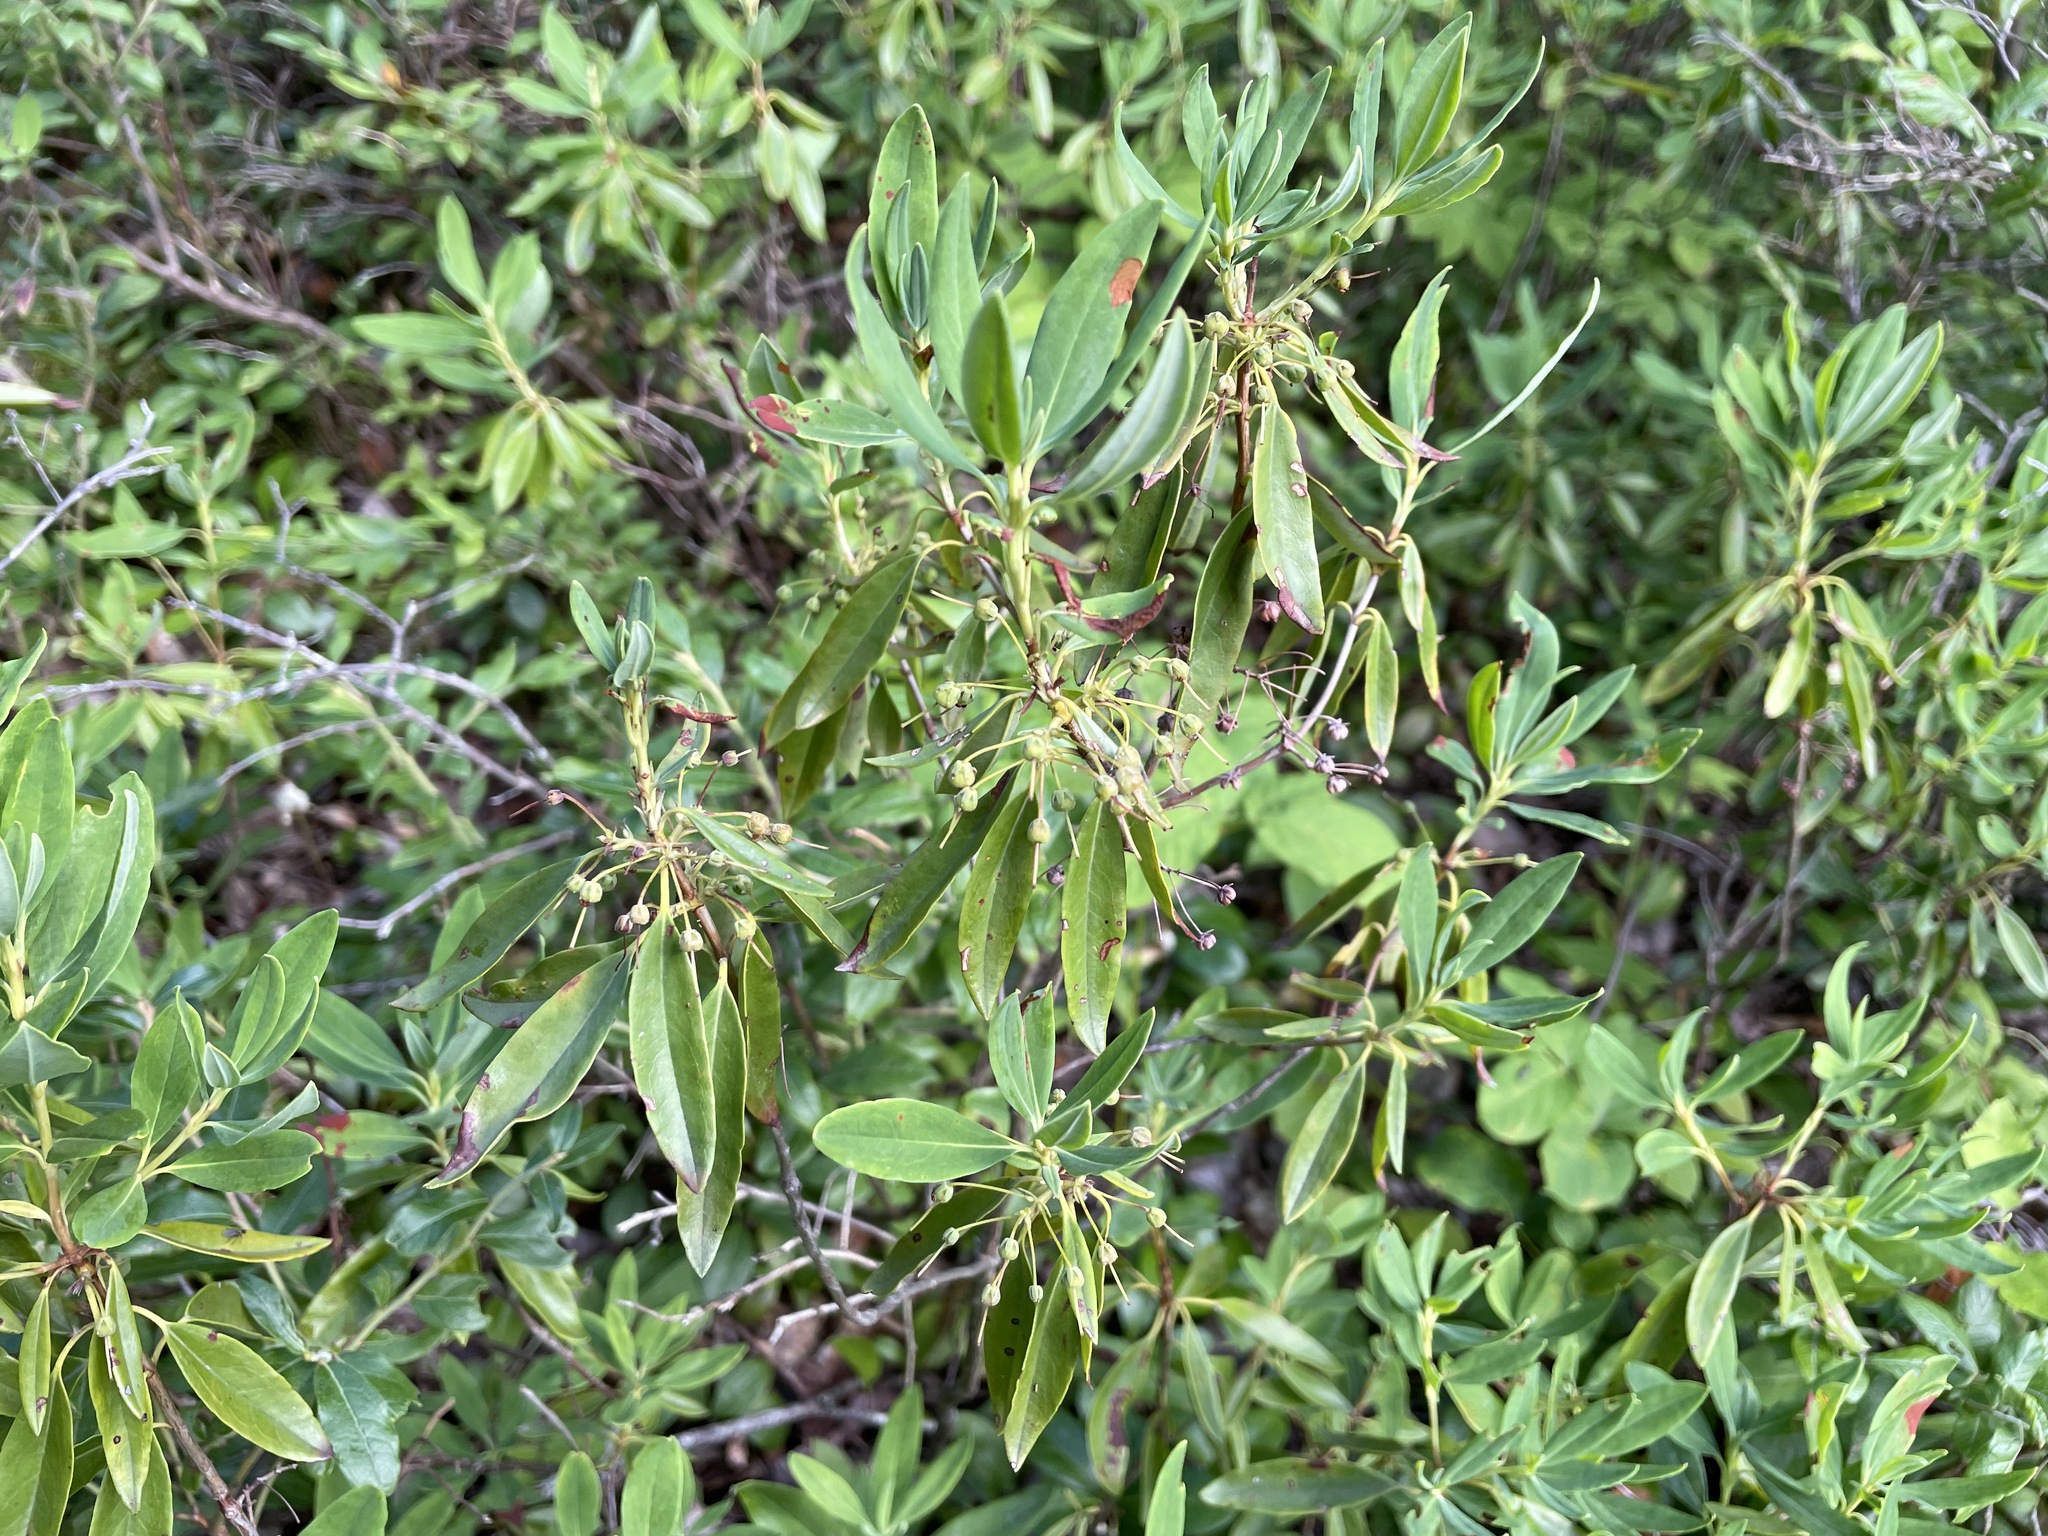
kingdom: Plantae
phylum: Tracheophyta
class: Magnoliopsida
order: Ericales
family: Ericaceae
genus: Kalmia
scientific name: Kalmia angustifolia
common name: Sheep-laurel
